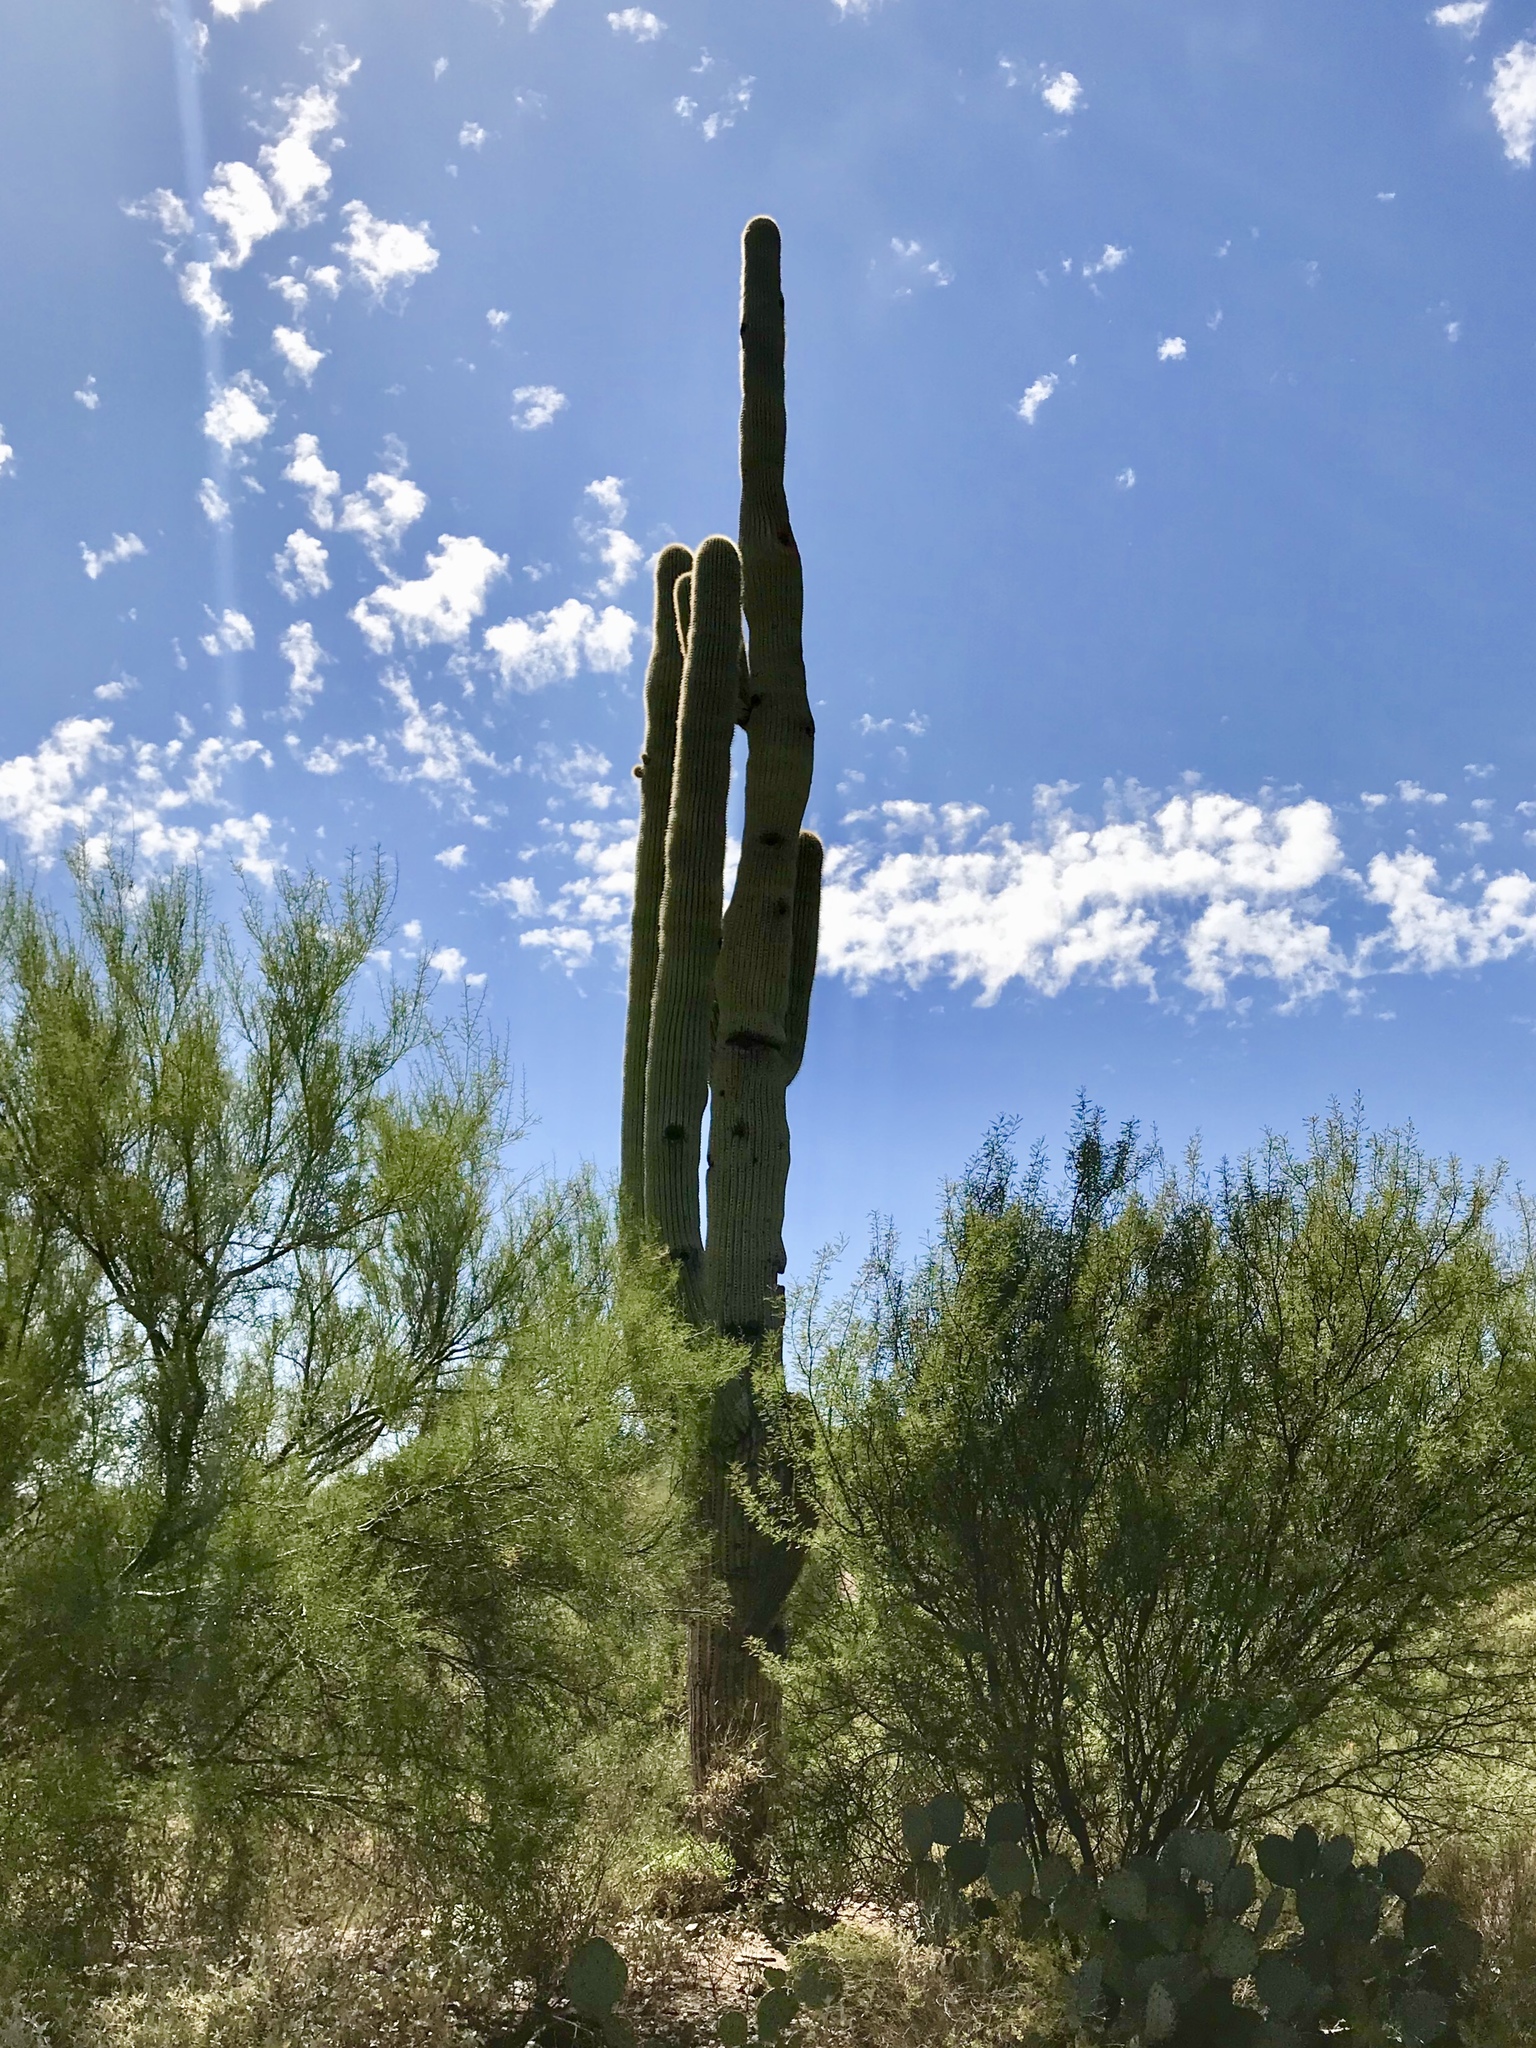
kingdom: Plantae
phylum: Tracheophyta
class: Magnoliopsida
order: Caryophyllales
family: Cactaceae
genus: Carnegiea
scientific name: Carnegiea gigantea
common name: Saguaro
